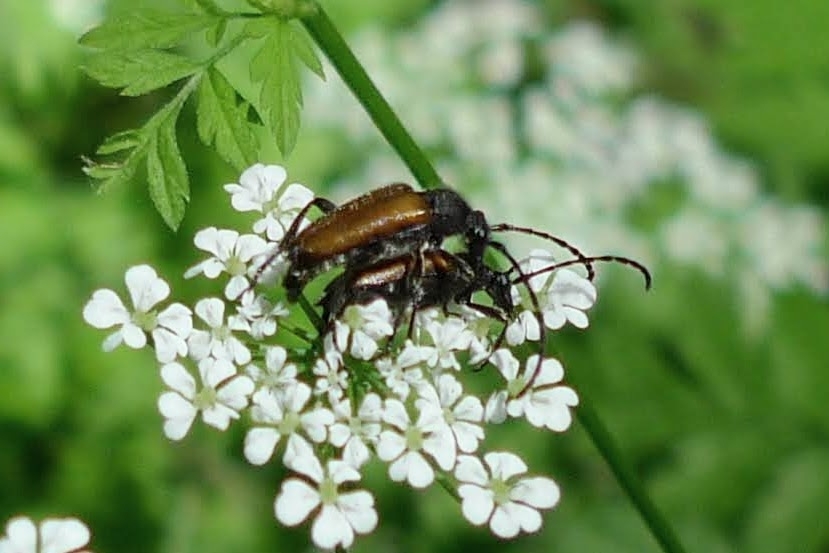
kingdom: Animalia
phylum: Arthropoda
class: Insecta
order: Coleoptera
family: Cerambycidae
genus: Paracorymbia
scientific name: Paracorymbia maculicornis
